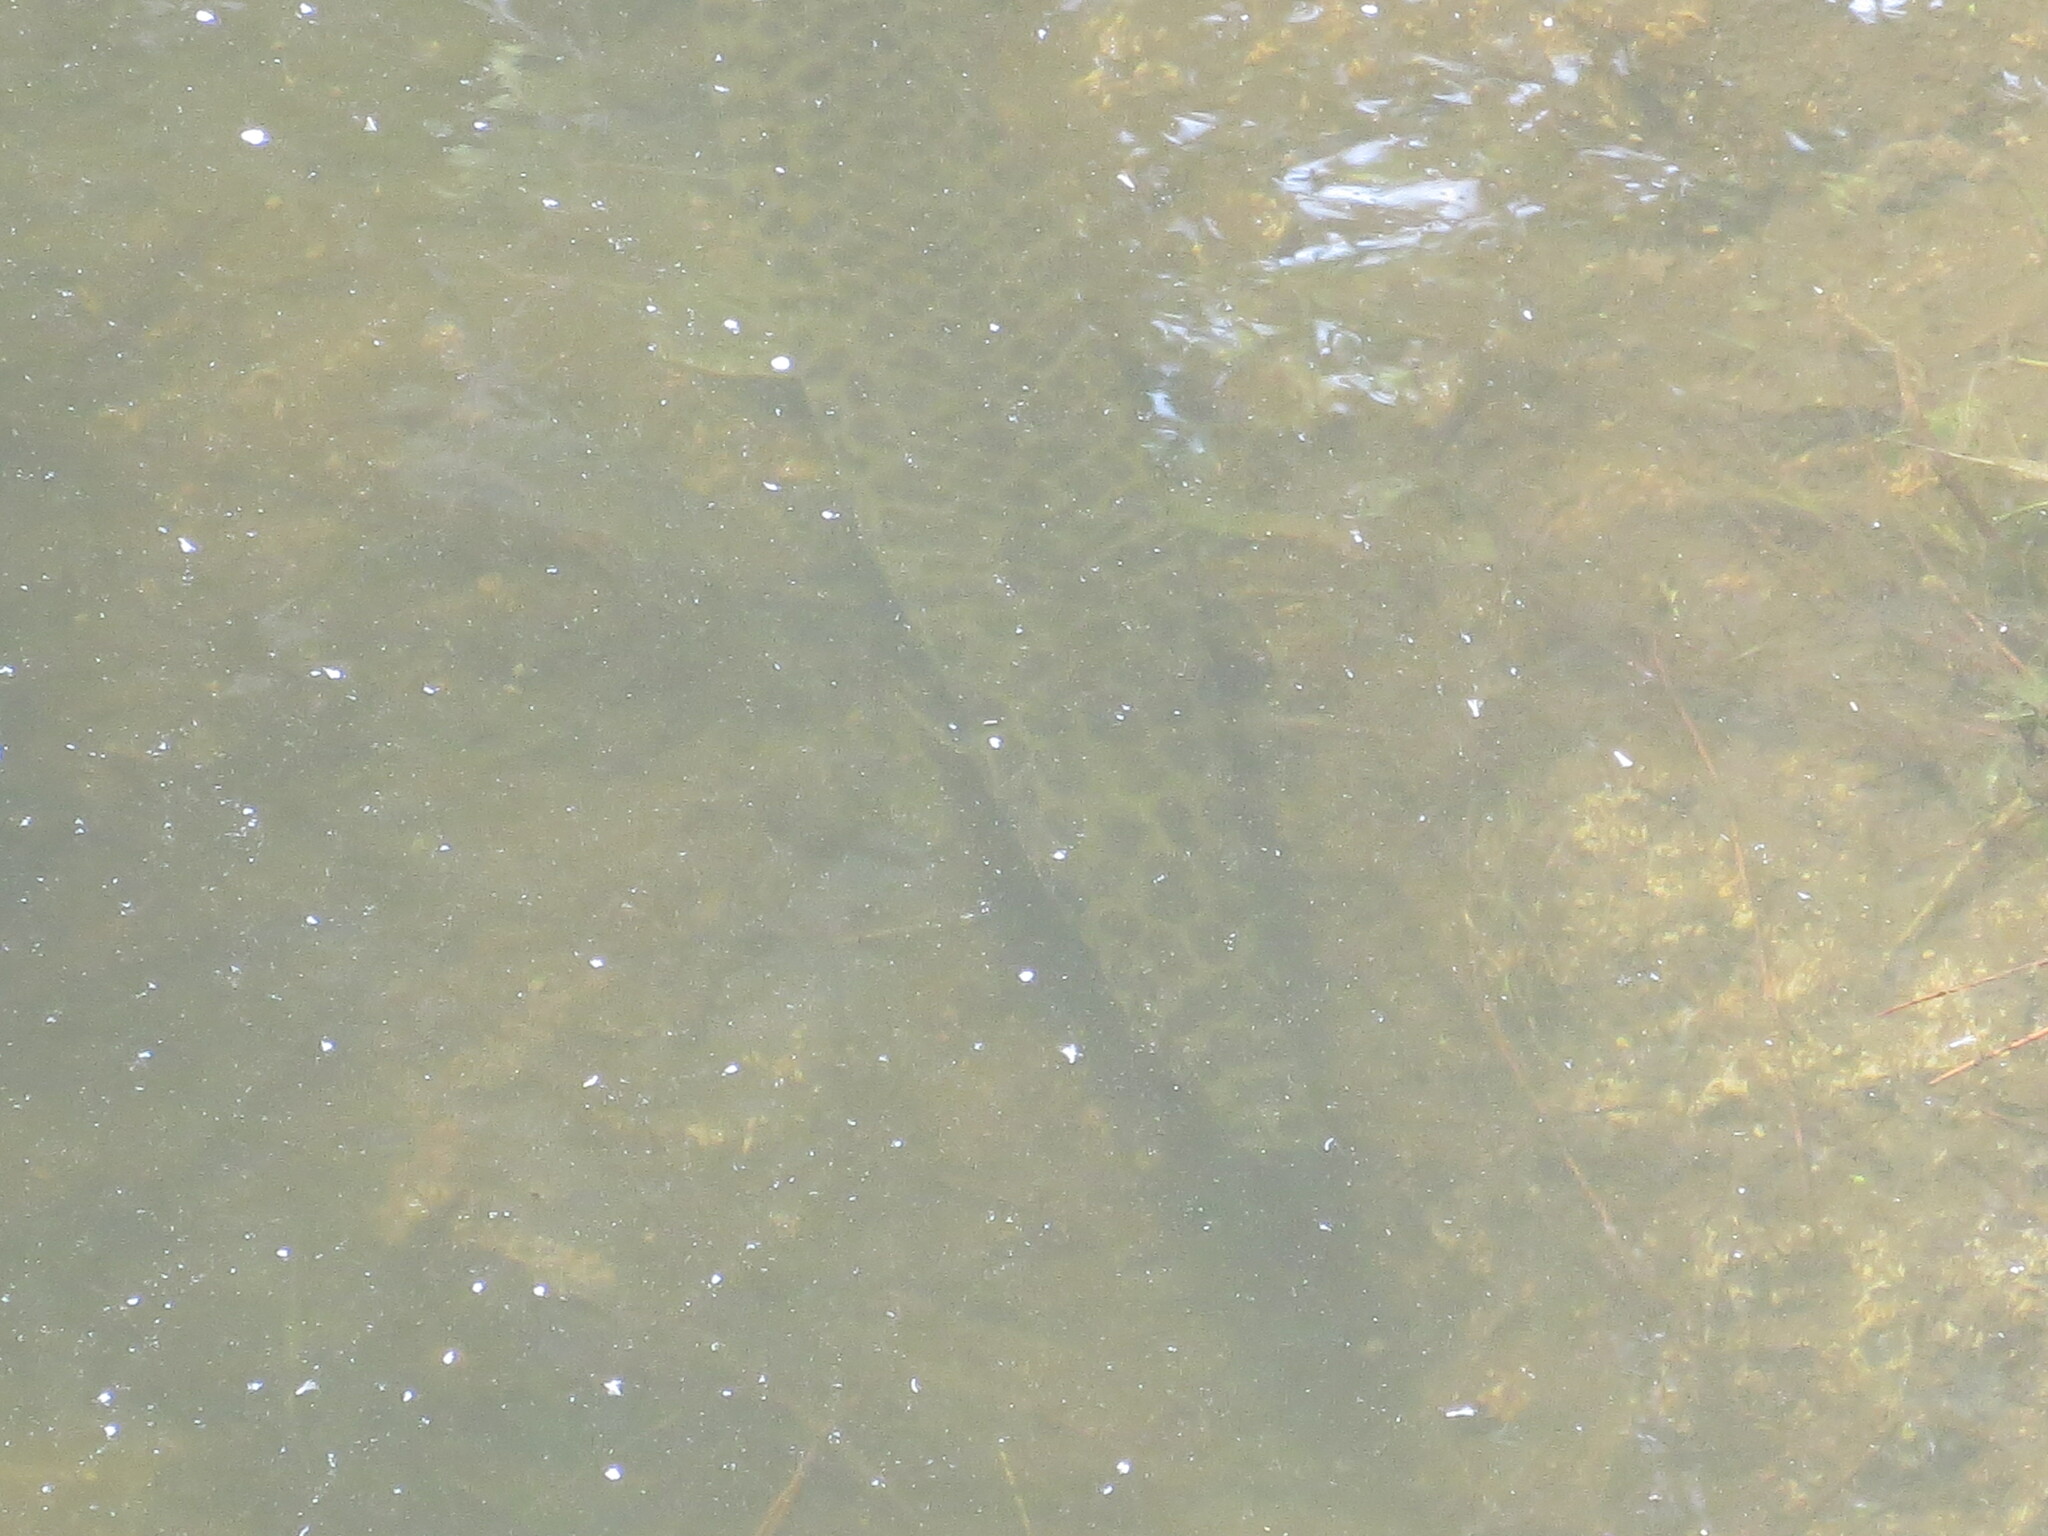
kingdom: Animalia
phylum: Chordata
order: Lepisosteiformes
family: Lepisosteidae
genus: Lepisosteus
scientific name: Lepisosteus platyrhincus
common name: Florida gar
